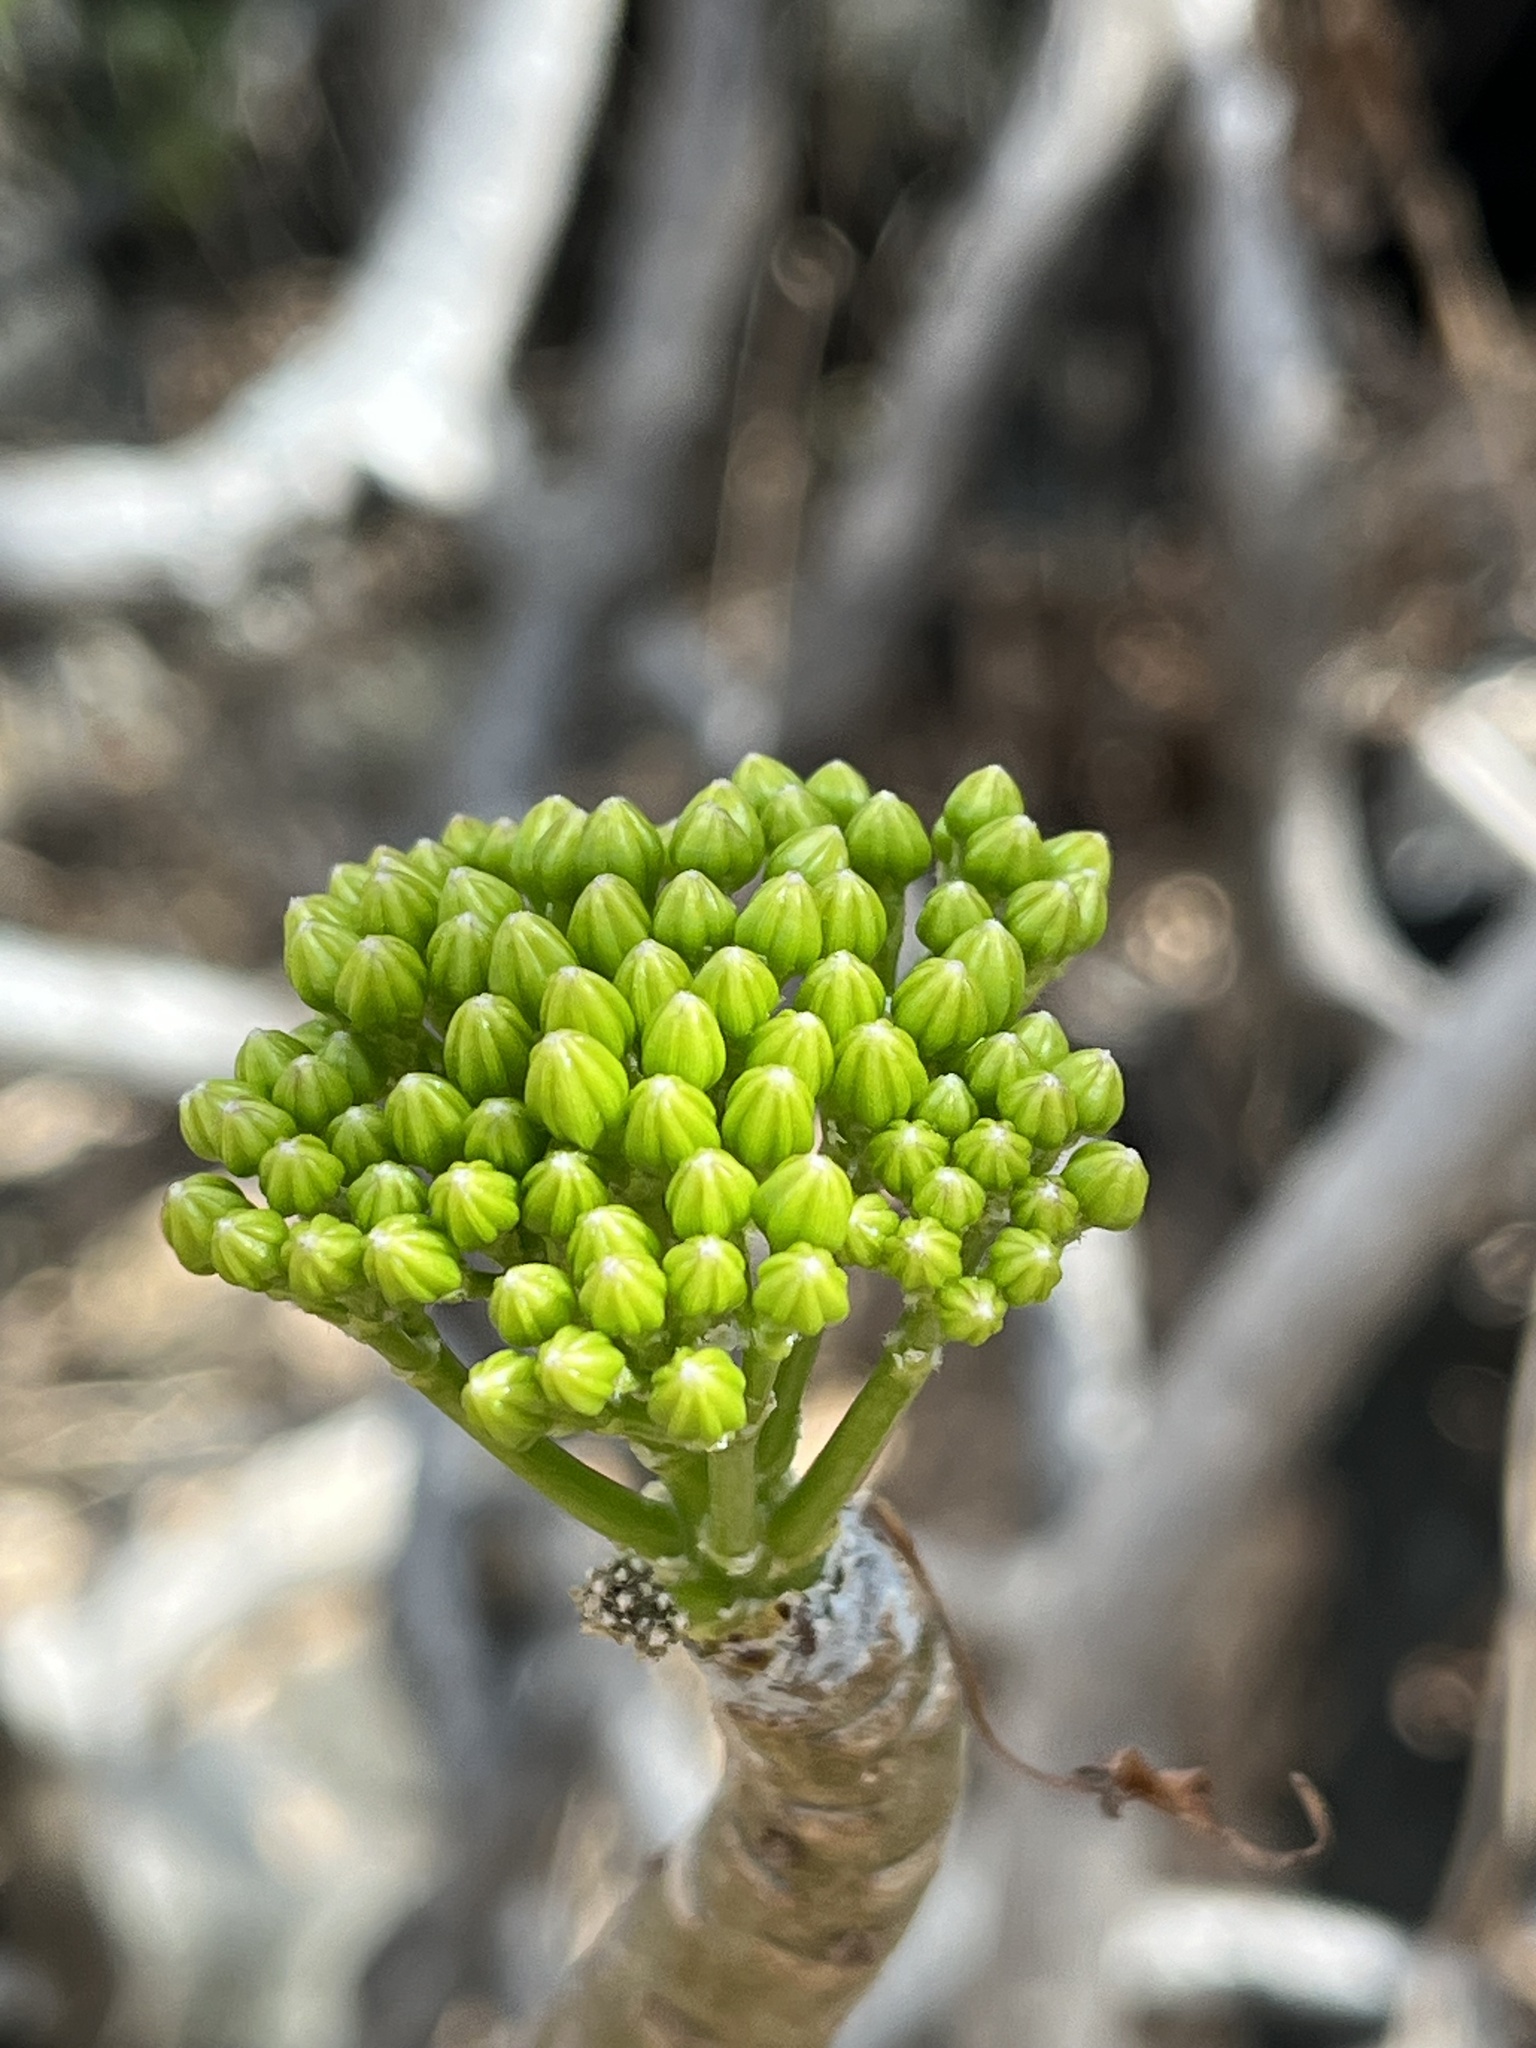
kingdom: Plantae
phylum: Tracheophyta
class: Magnoliopsida
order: Asterales
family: Asteraceae
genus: Pittocaulon
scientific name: Pittocaulon praecox
